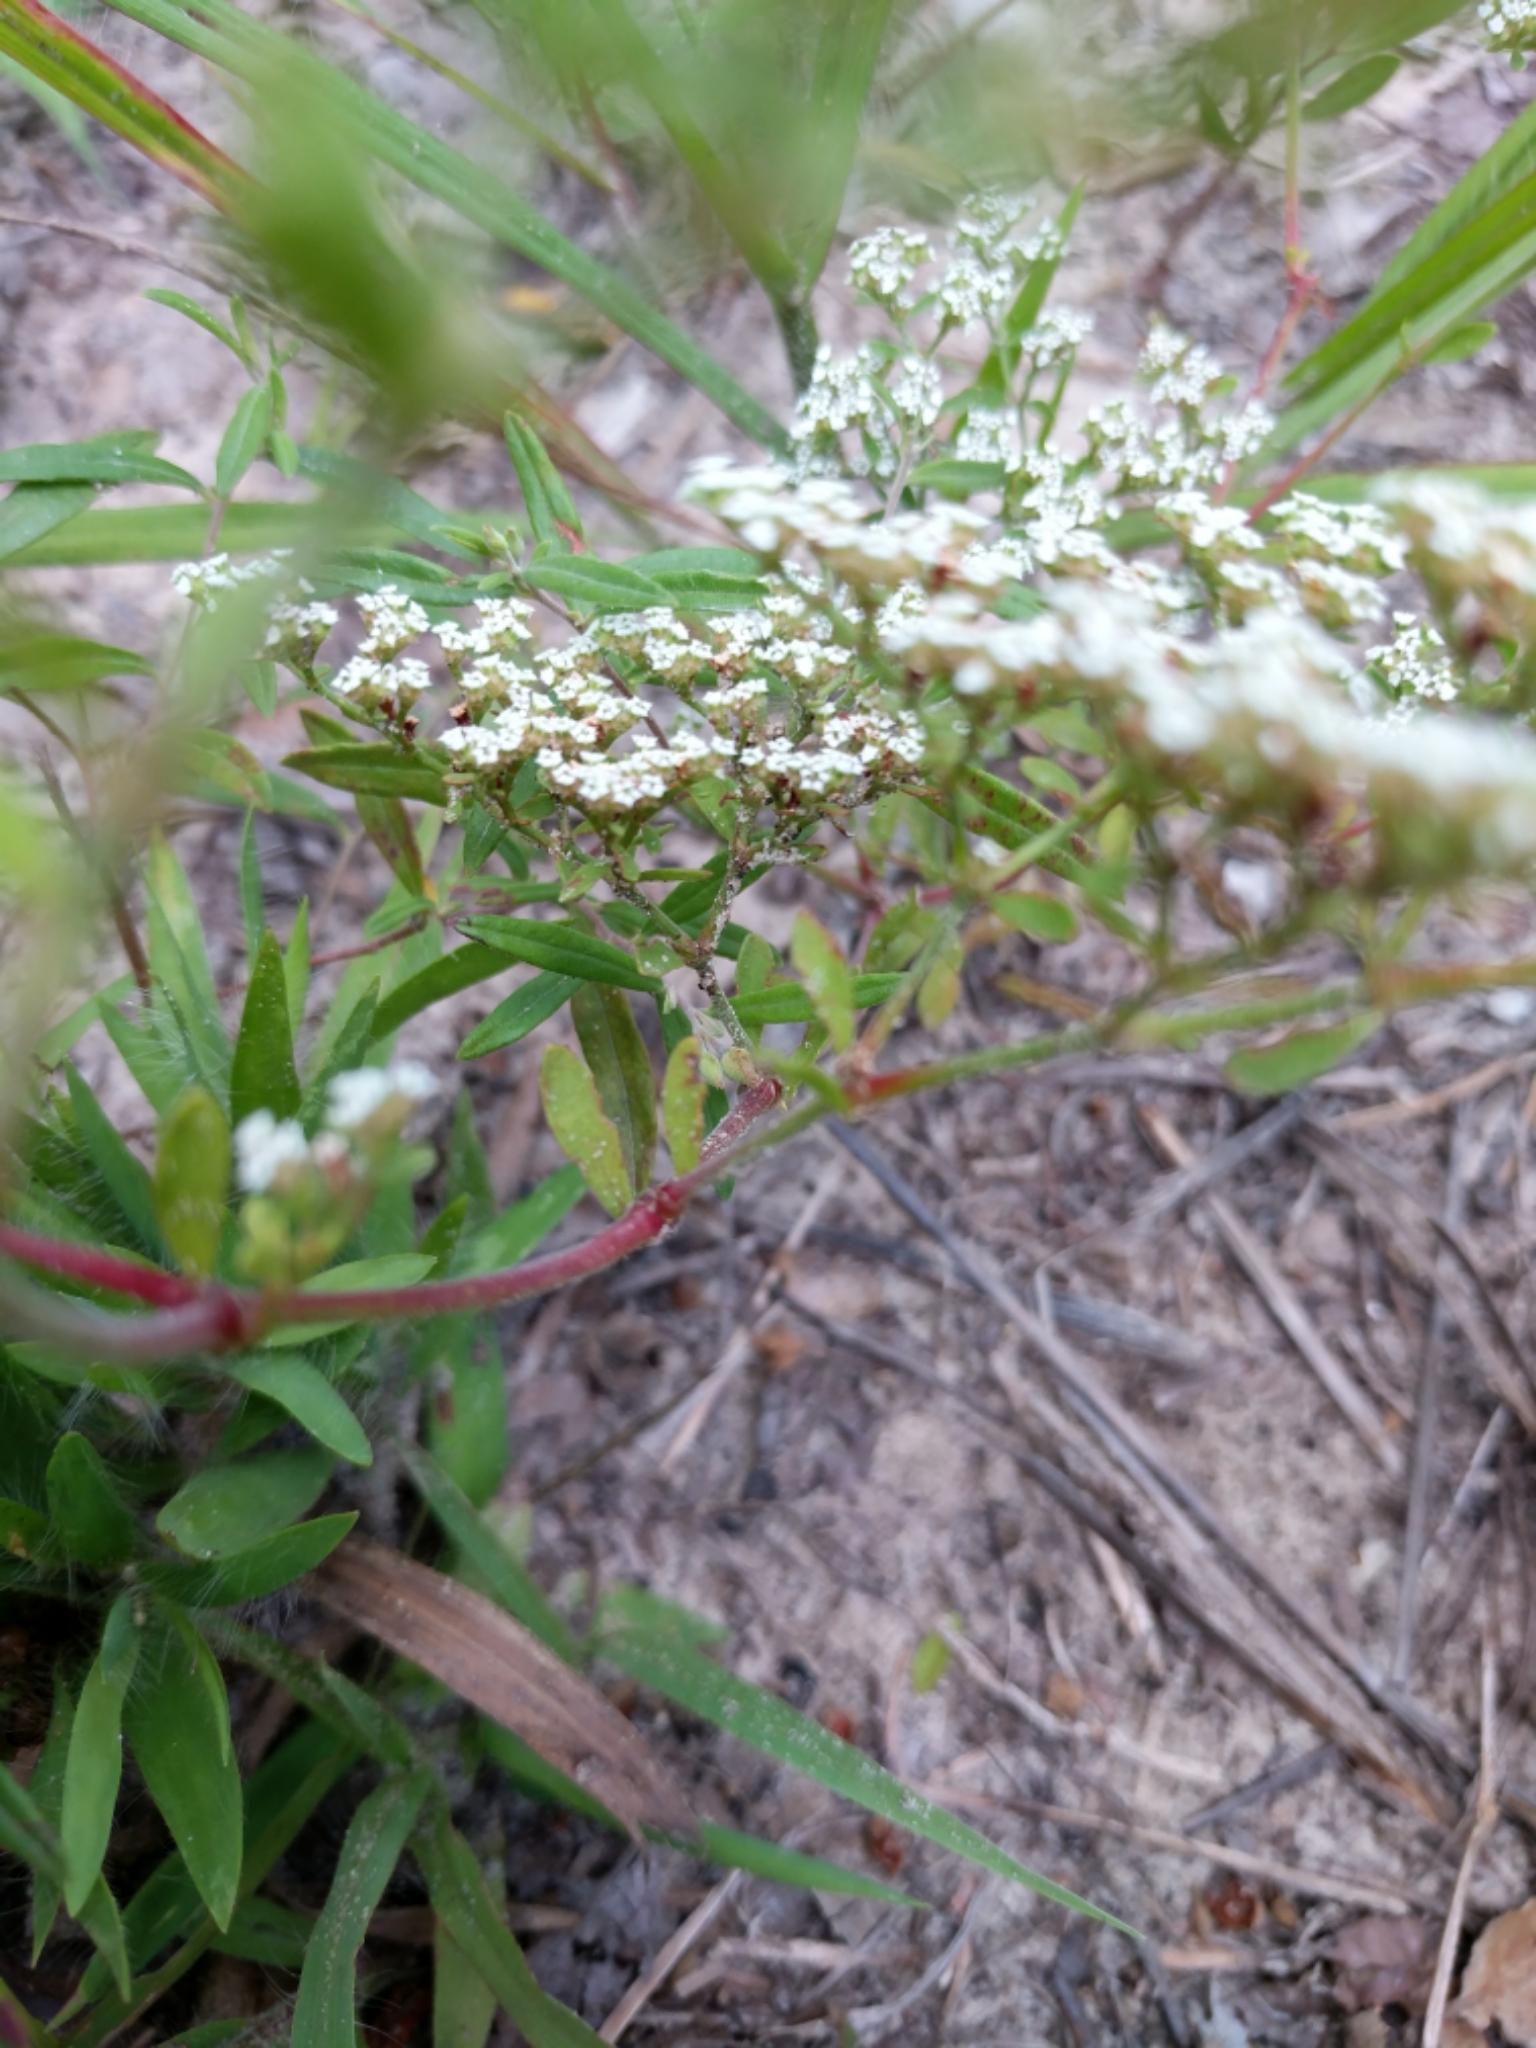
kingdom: Plantae
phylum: Tracheophyta
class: Magnoliopsida
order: Caryophyllales
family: Caryophyllaceae
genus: Paronychia
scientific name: Paronychia drummondii
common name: Drummond's nailwort
